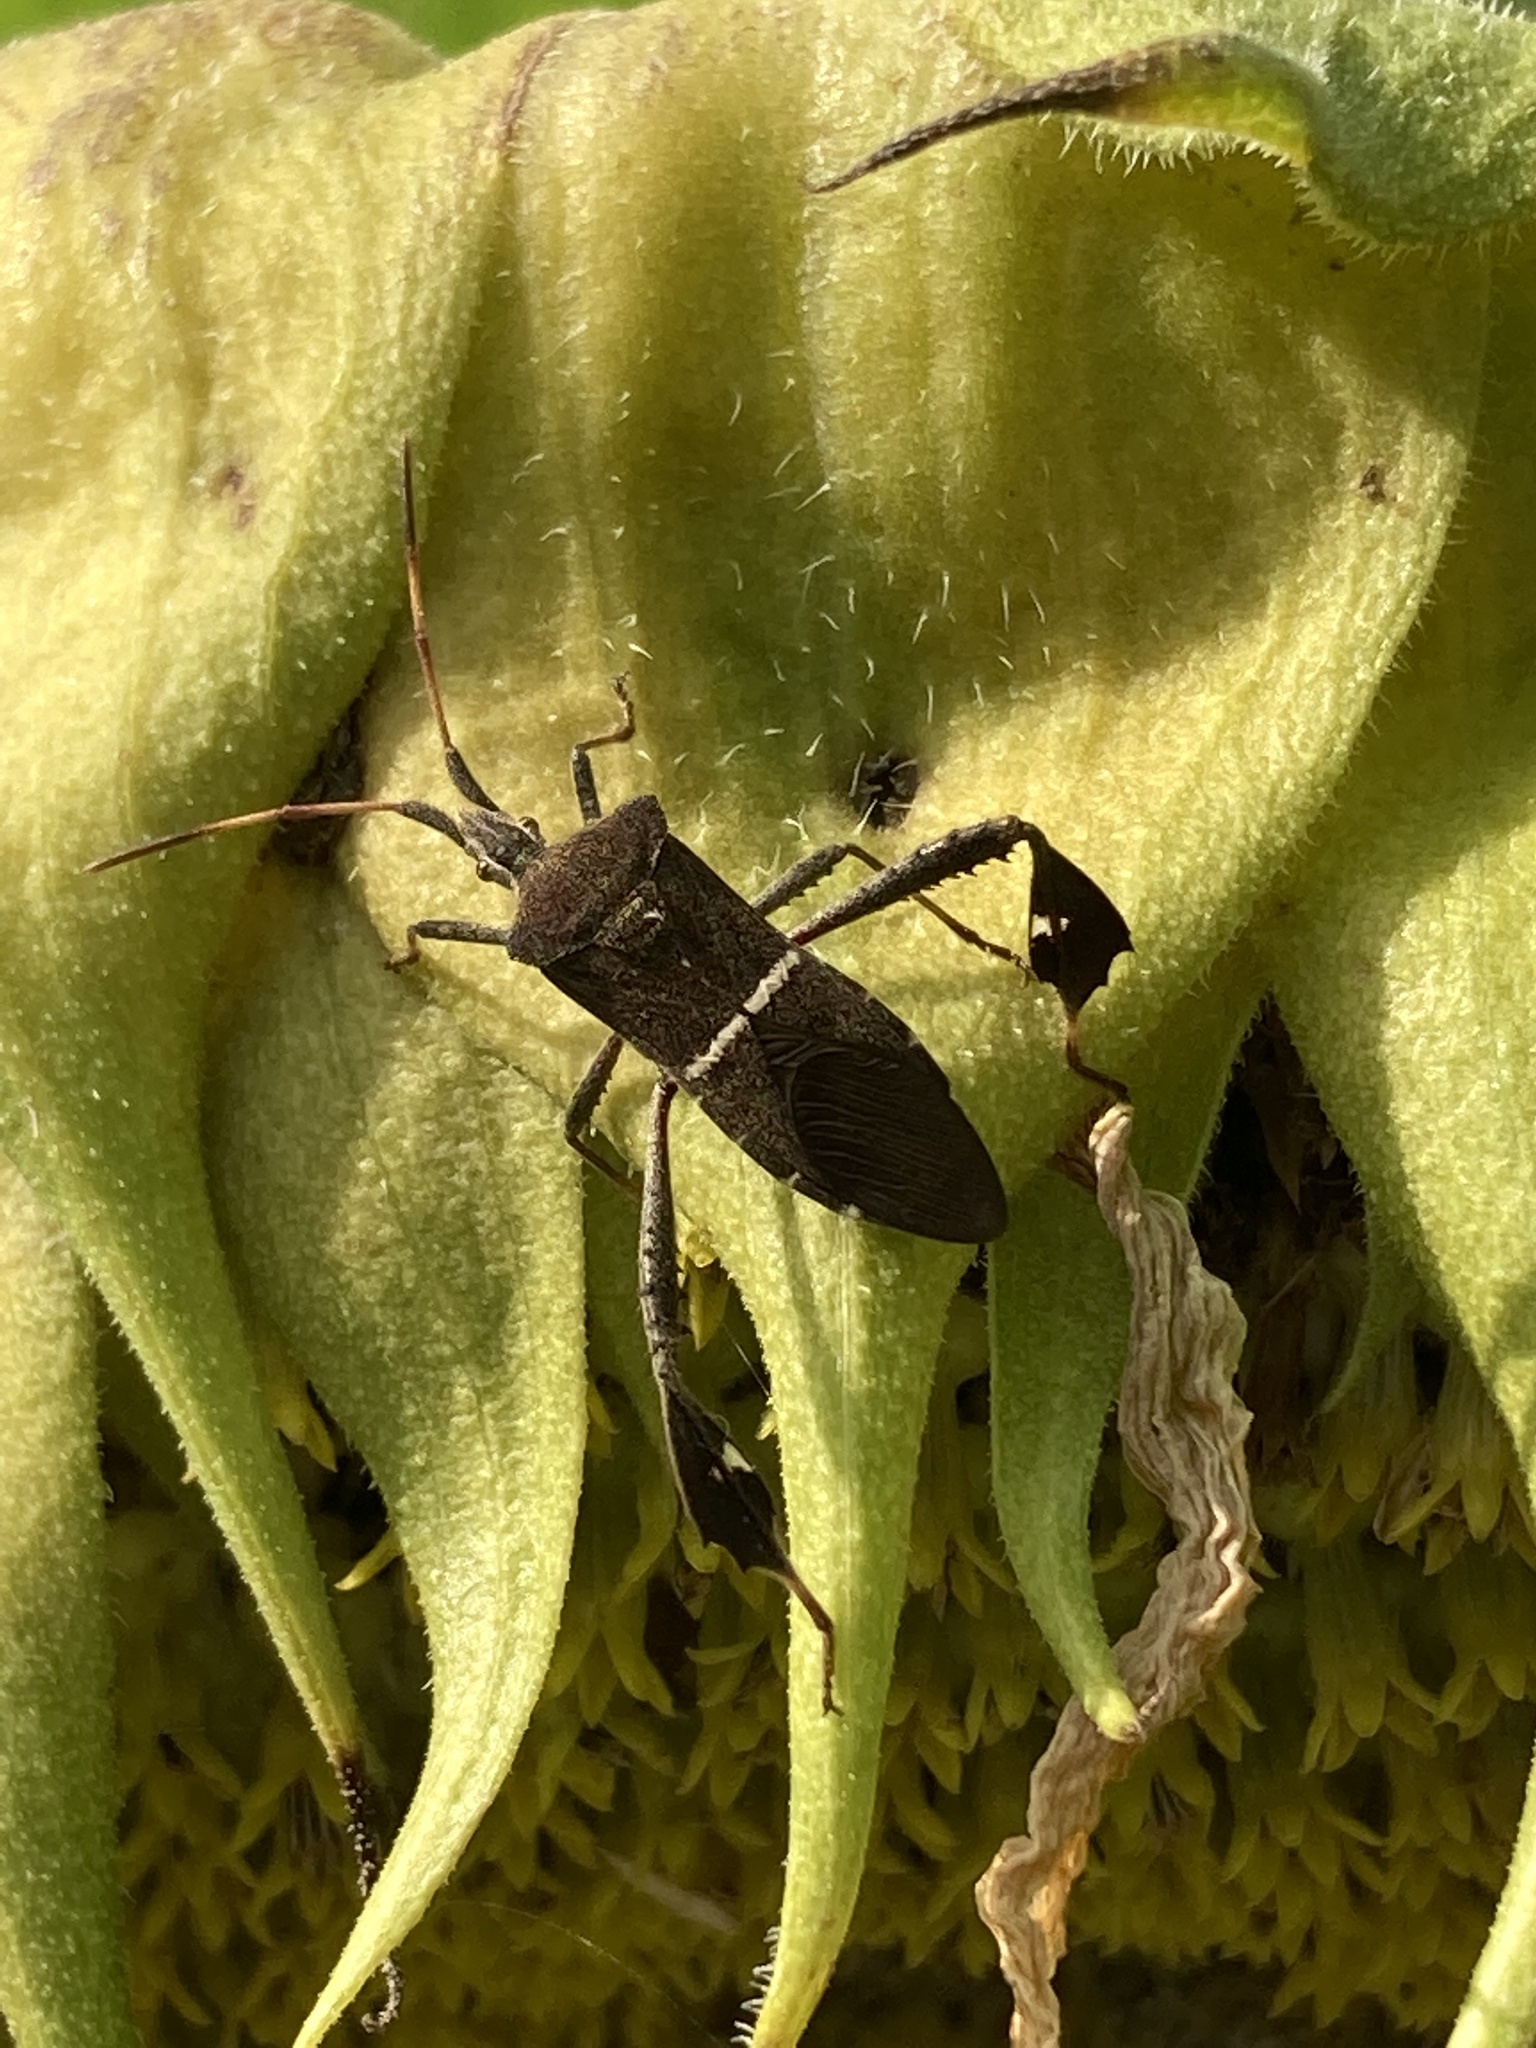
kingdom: Animalia
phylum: Arthropoda
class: Insecta
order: Hemiptera
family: Coreidae
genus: Leptoglossus
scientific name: Leptoglossus phyllopus
